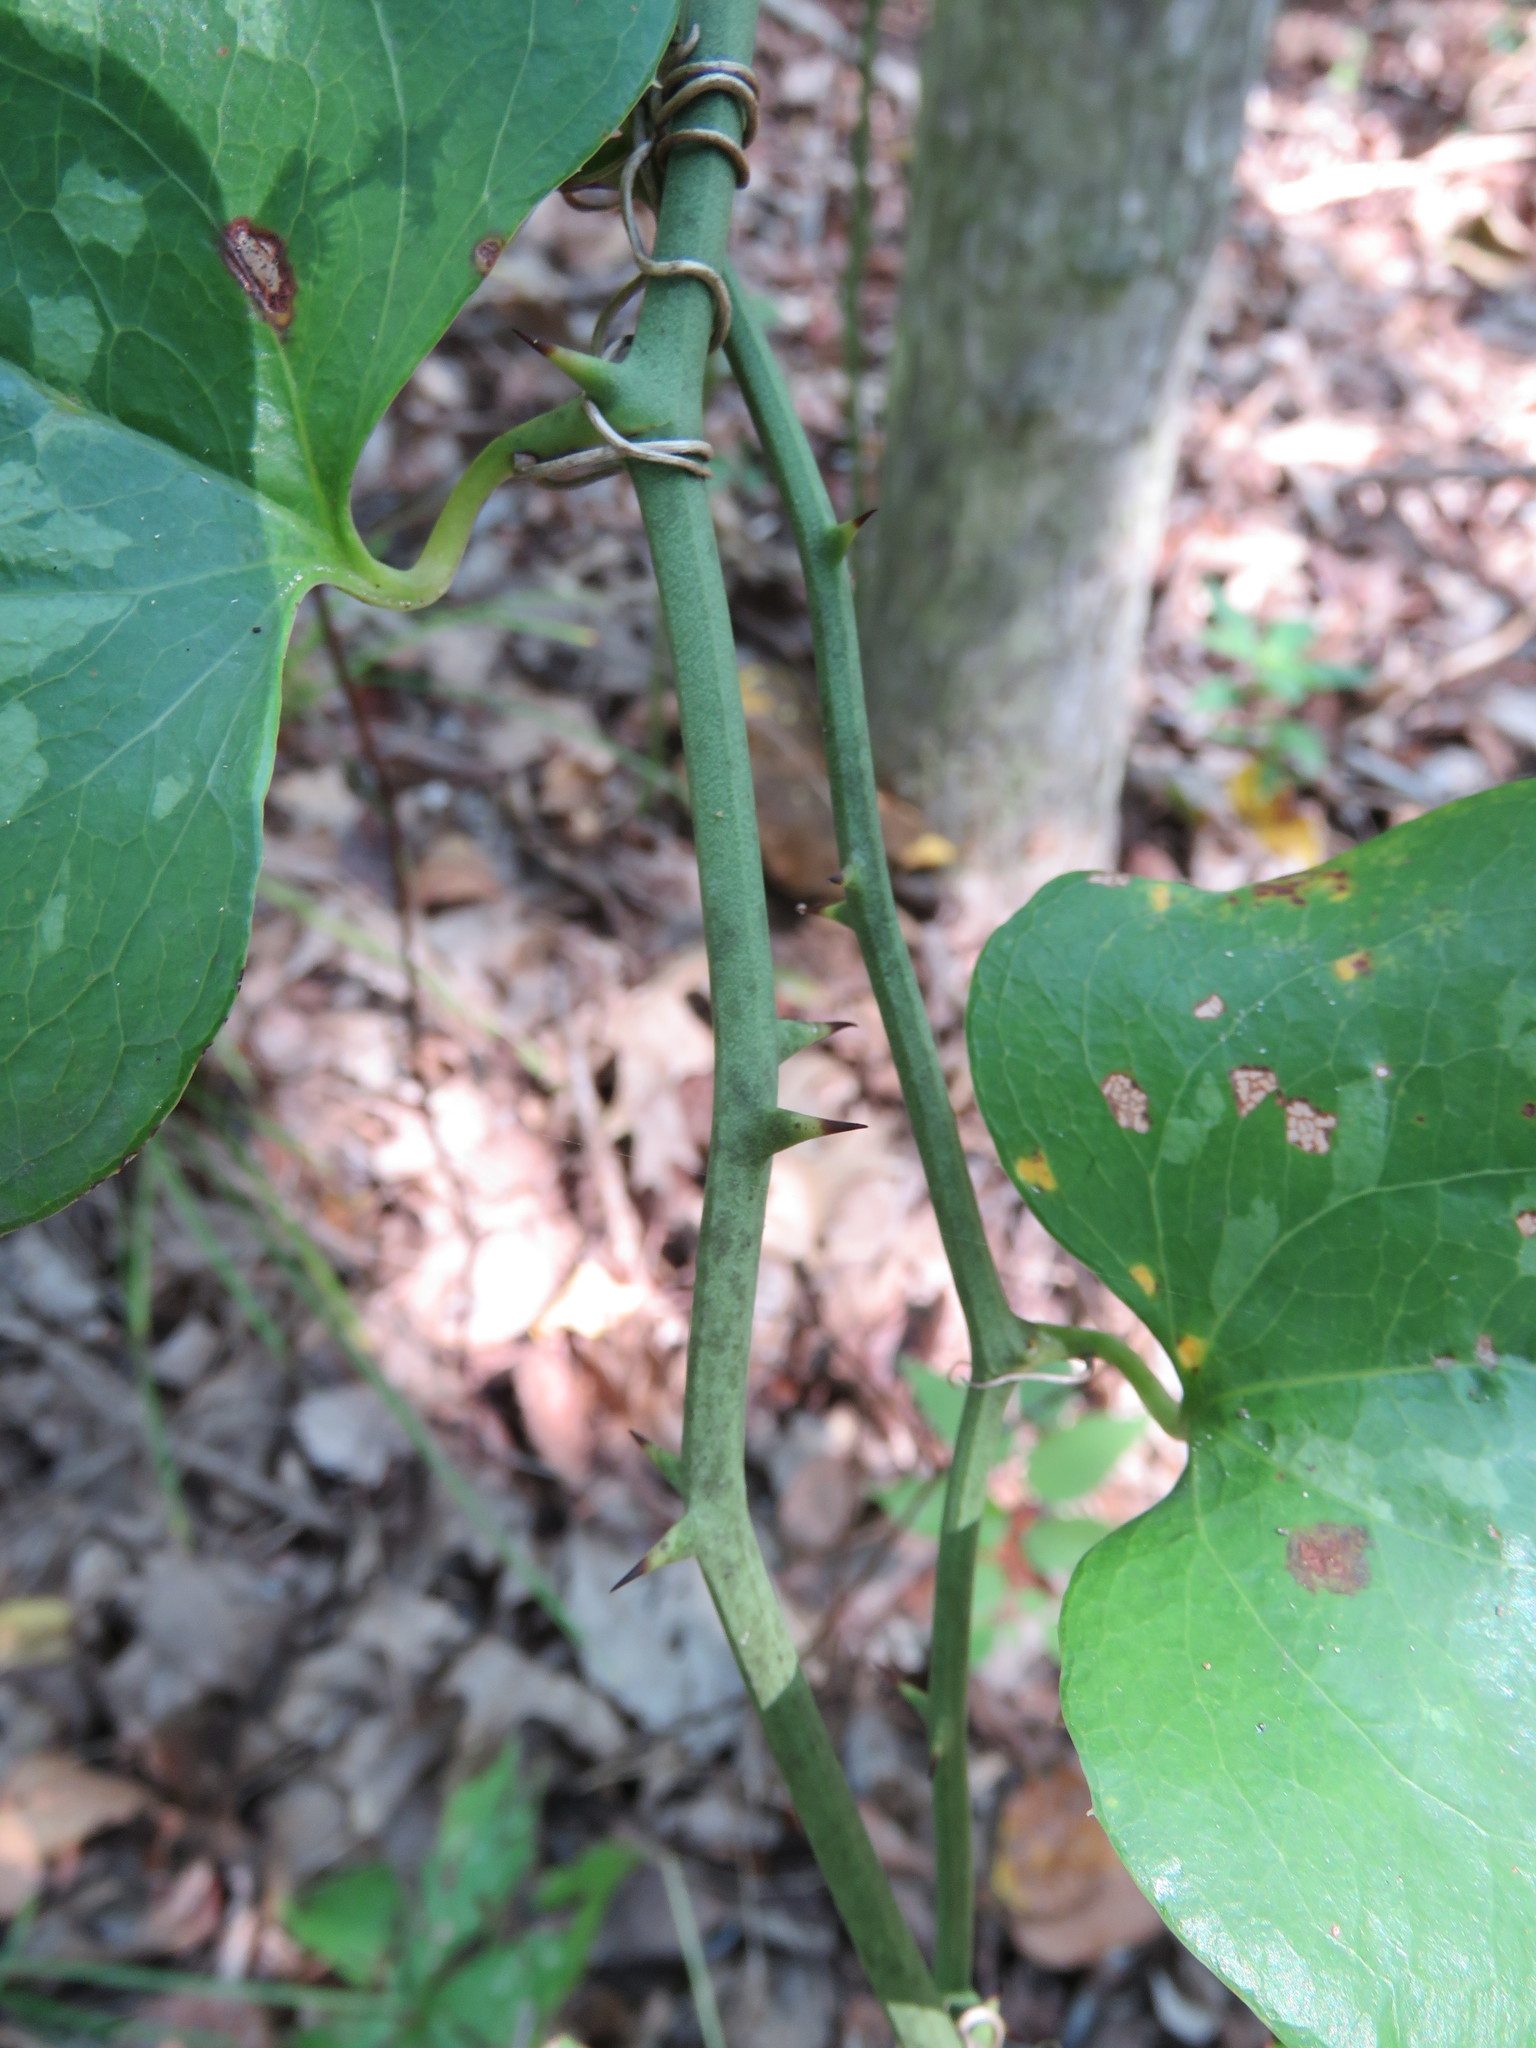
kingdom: Plantae
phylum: Tracheophyta
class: Liliopsida
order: Liliales
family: Smilacaceae
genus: Smilax
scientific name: Smilax bona-nox
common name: Catbrier
